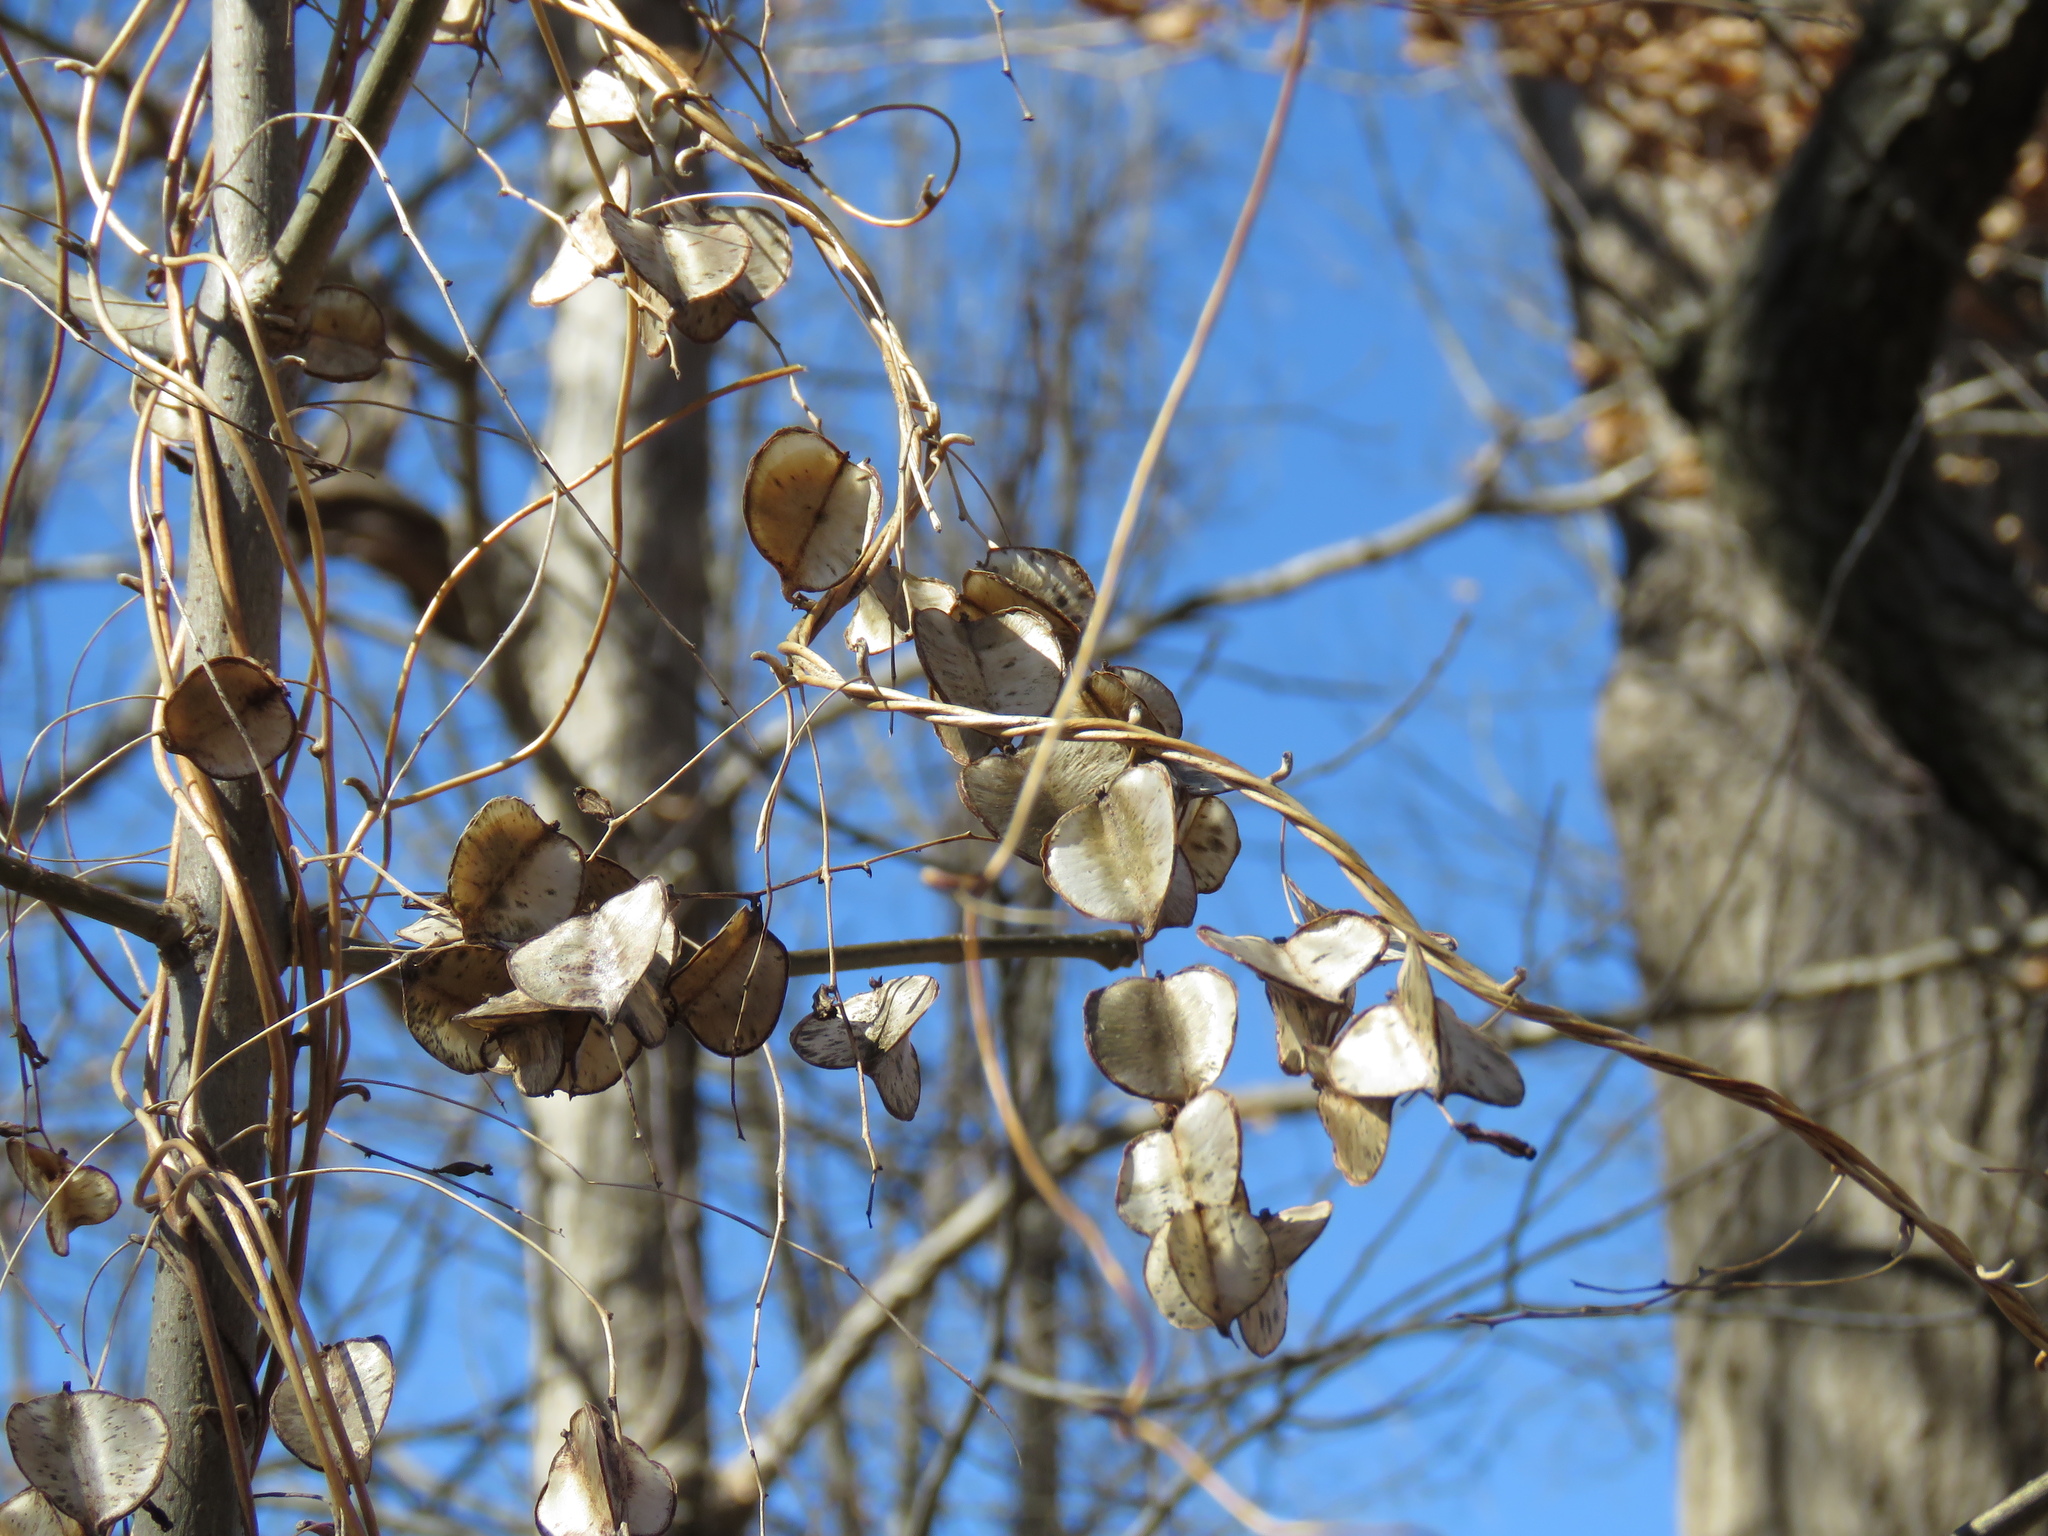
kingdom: Plantae
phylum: Tracheophyta
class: Liliopsida
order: Dioscoreales
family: Dioscoreaceae
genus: Dioscorea
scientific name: Dioscorea villosa
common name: Wild yam
